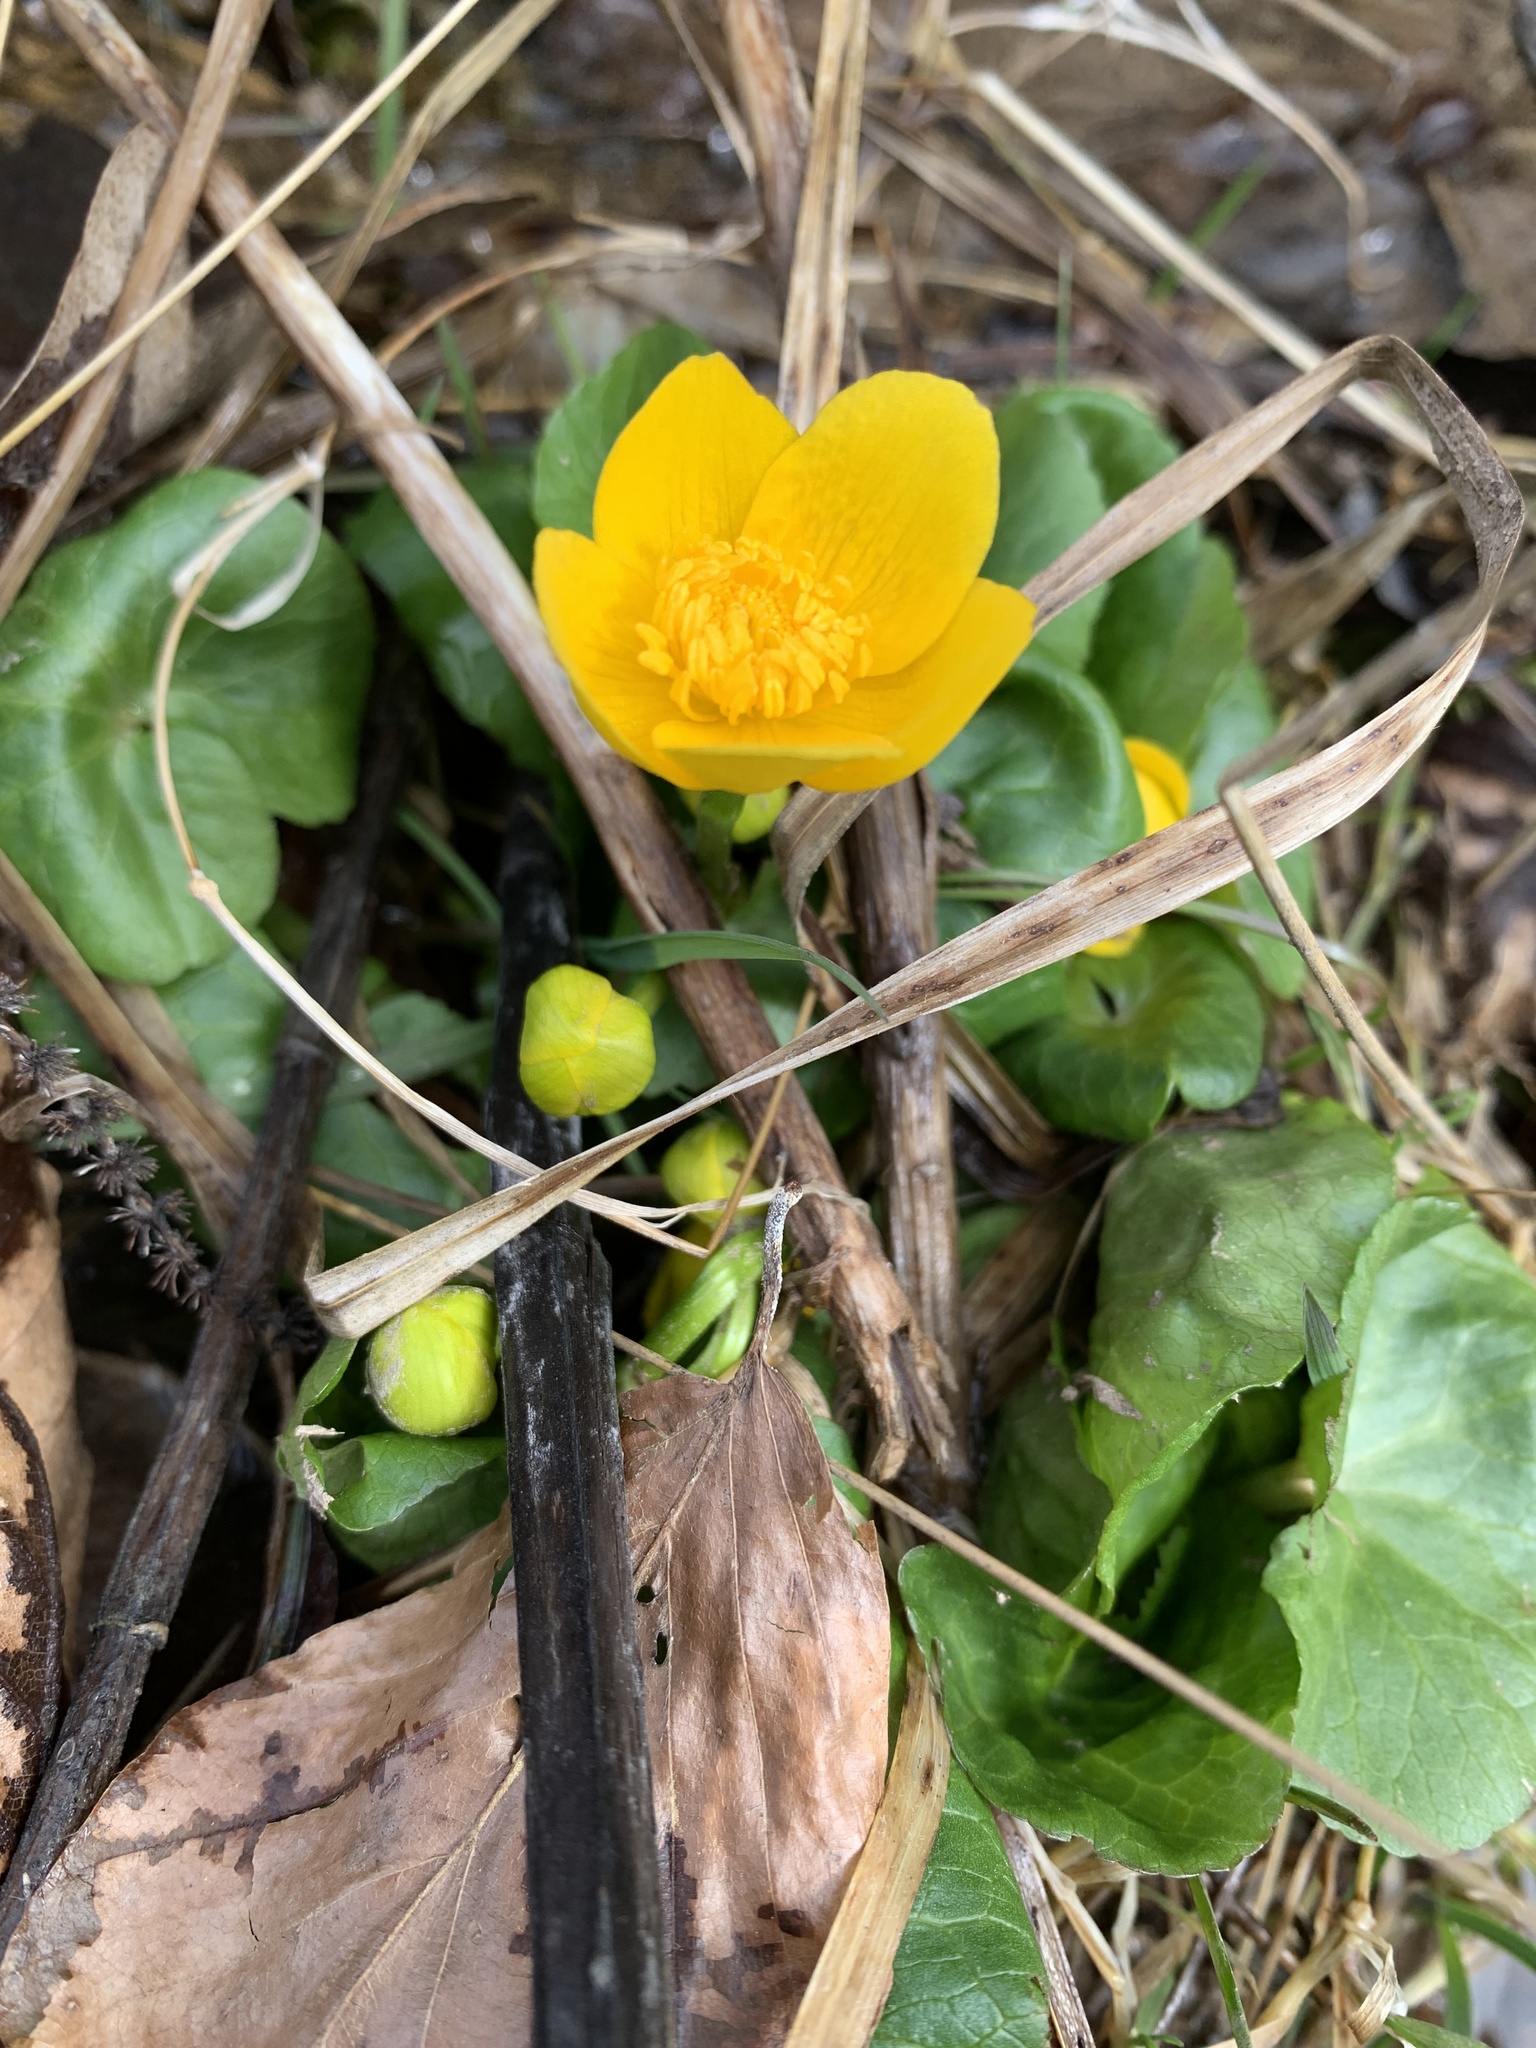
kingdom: Plantae
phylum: Tracheophyta
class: Magnoliopsida
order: Ranunculales
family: Ranunculaceae
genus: Caltha
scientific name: Caltha palustris
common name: Marsh marigold
